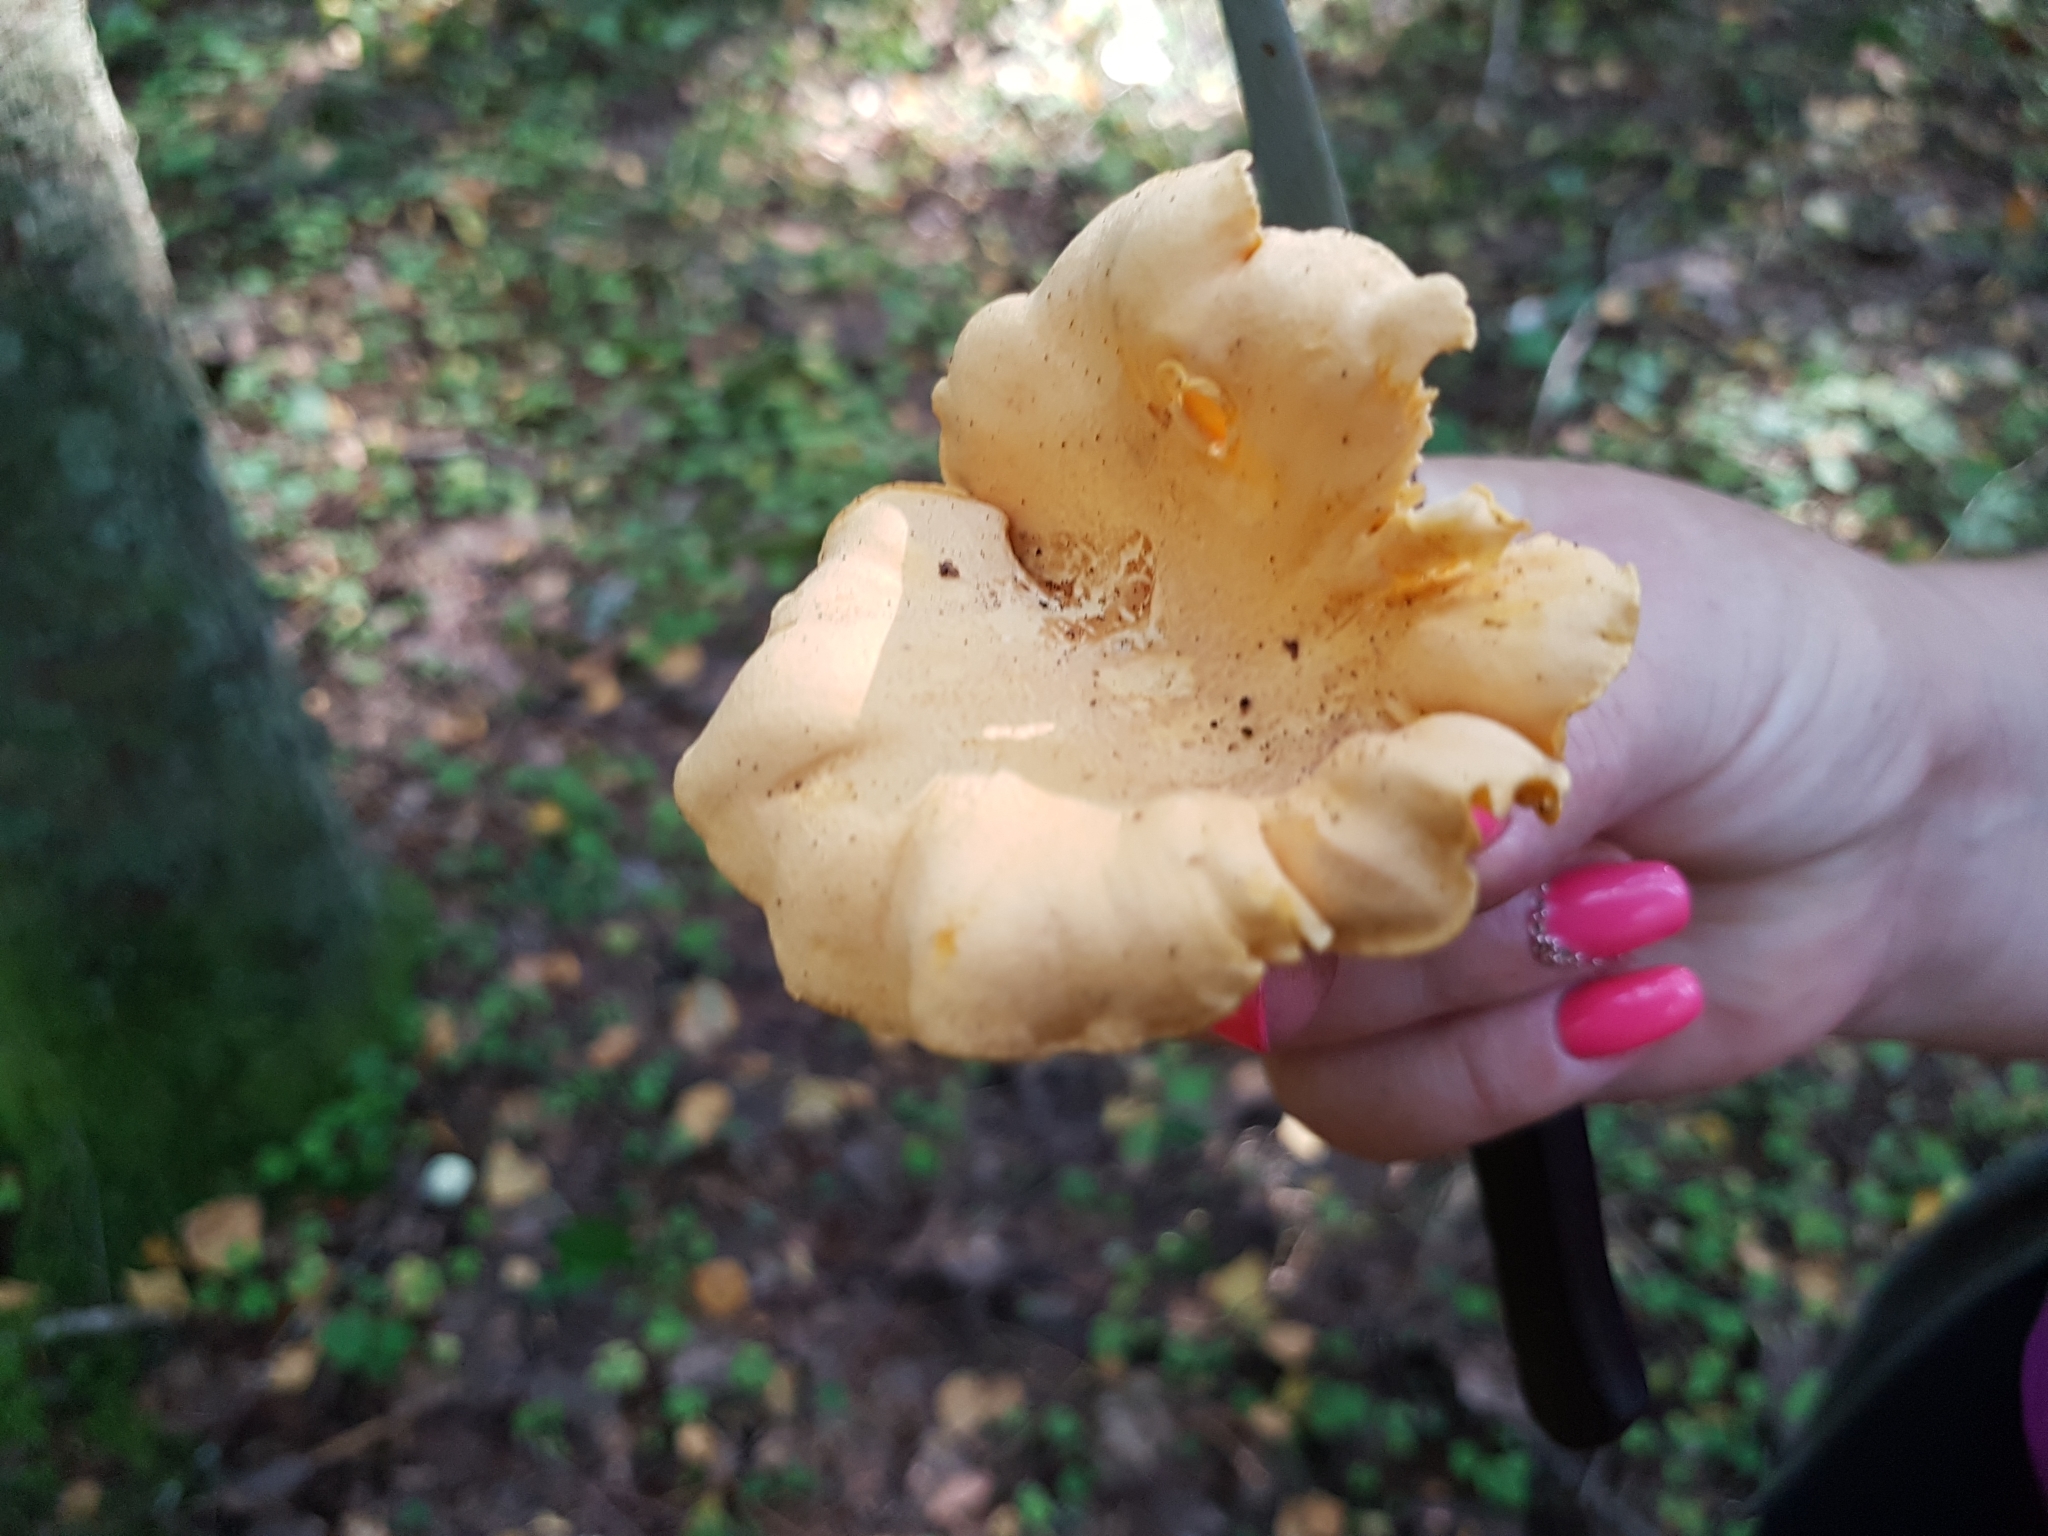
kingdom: Fungi
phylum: Basidiomycota
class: Agaricomycetes
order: Cantharellales
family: Hydnaceae
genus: Cantharellus
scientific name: Cantharellus cibarius
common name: Chanterelle
